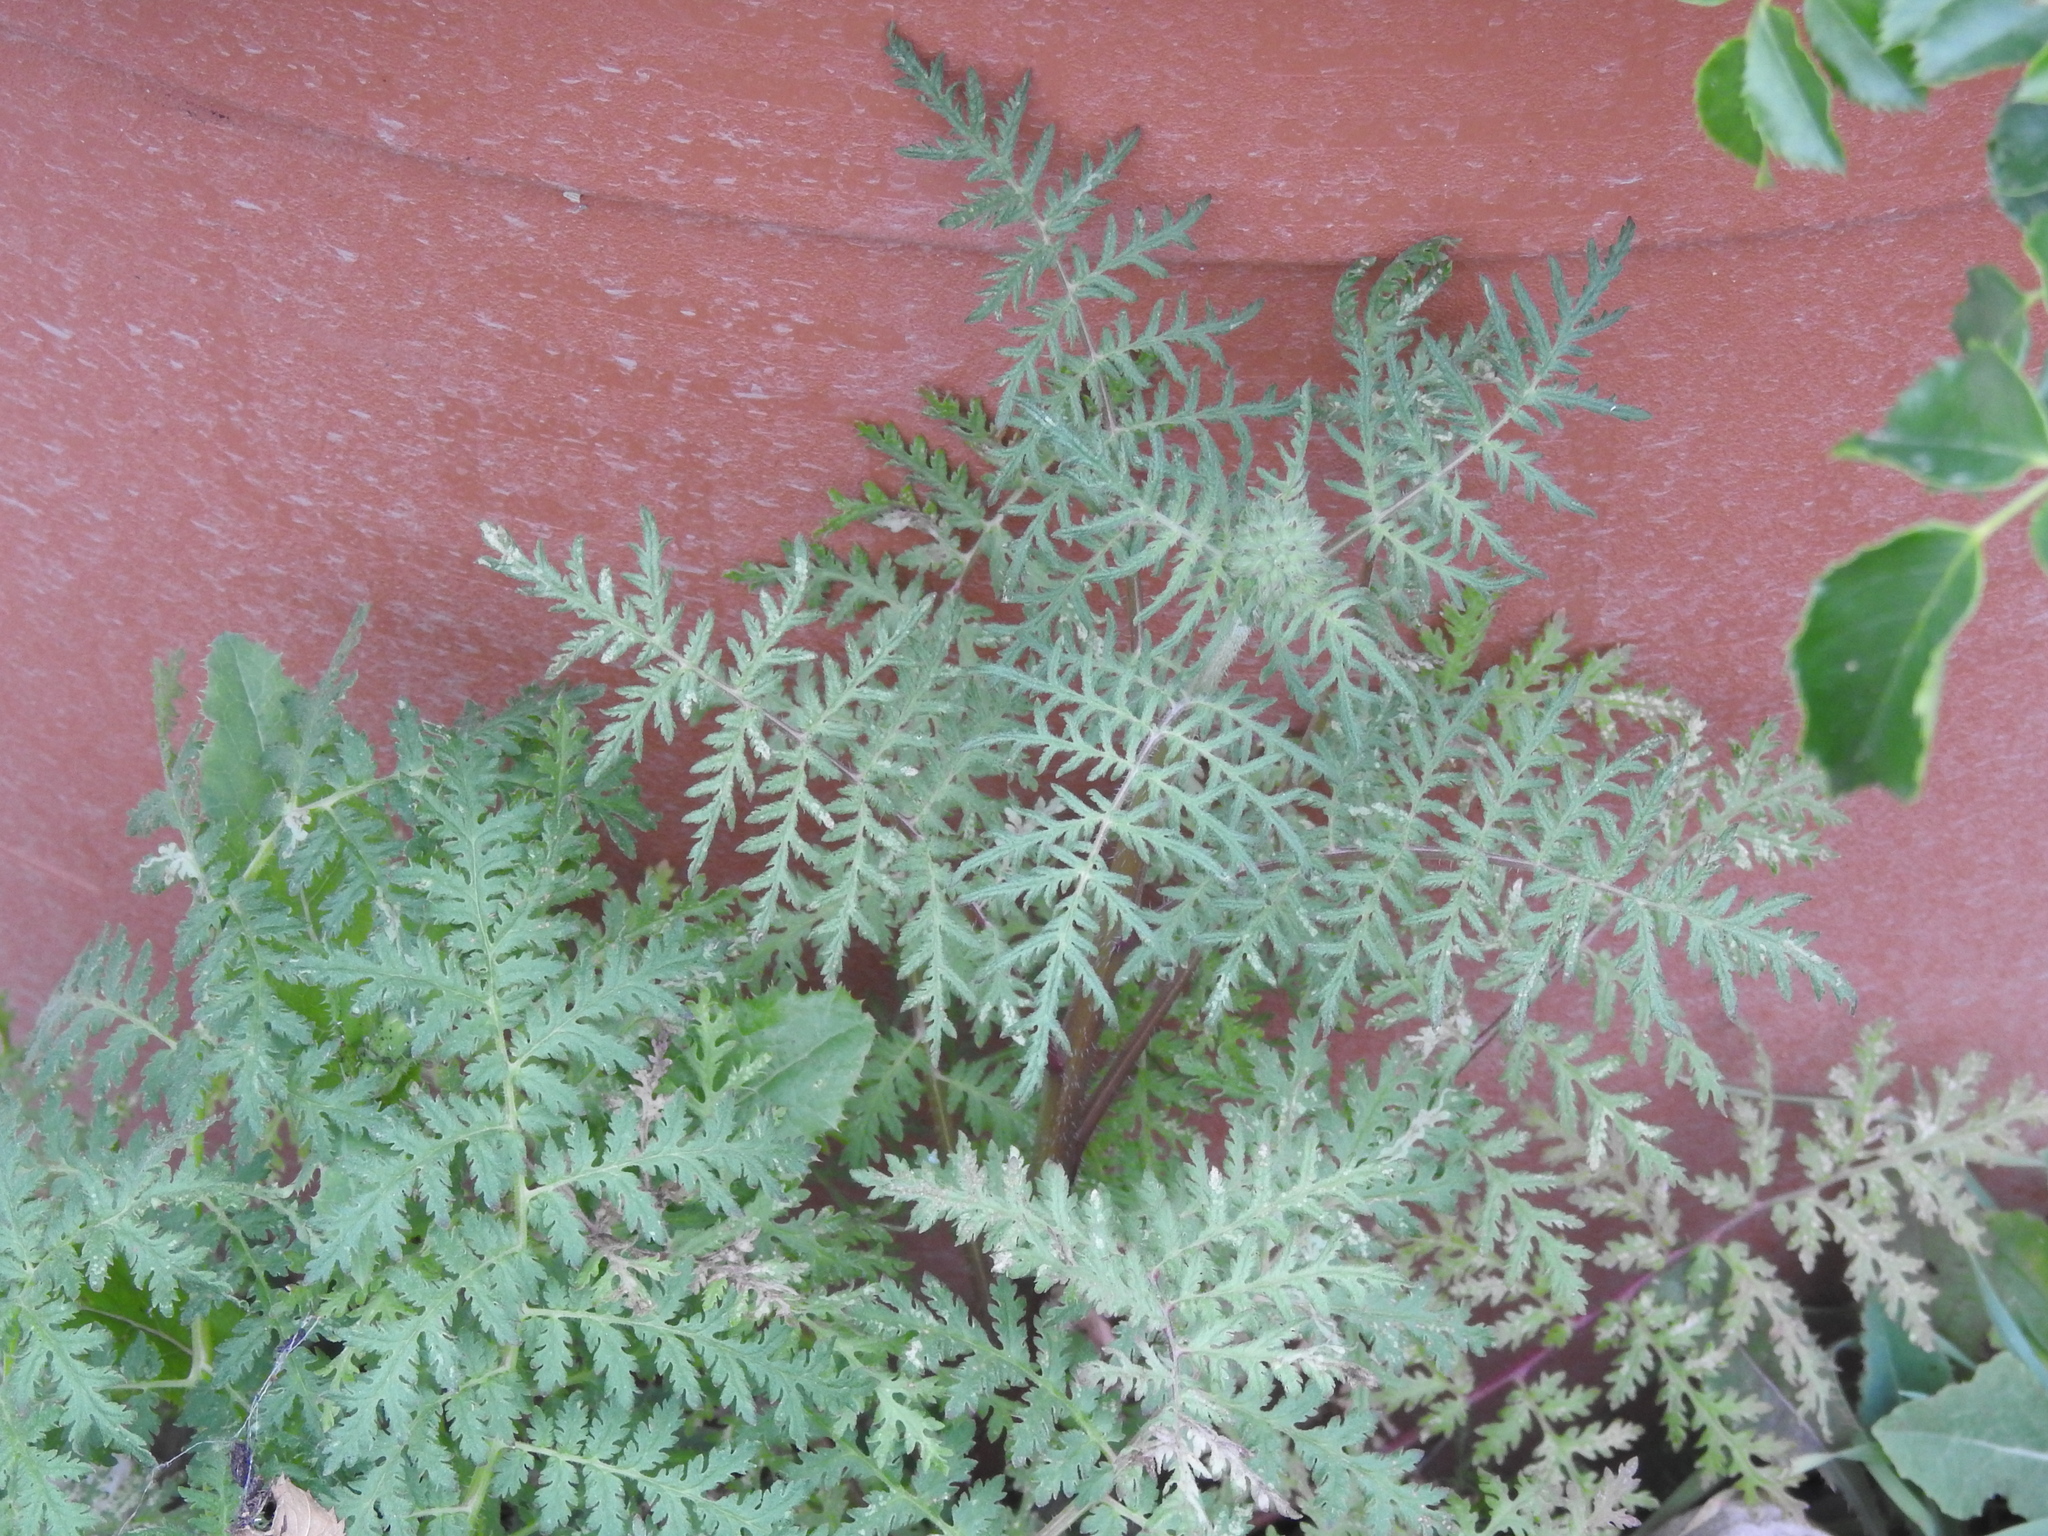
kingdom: Plantae
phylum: Tracheophyta
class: Magnoliopsida
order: Boraginales
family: Hydrophyllaceae
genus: Phacelia
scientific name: Phacelia tanacetifolia
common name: Phacelia
